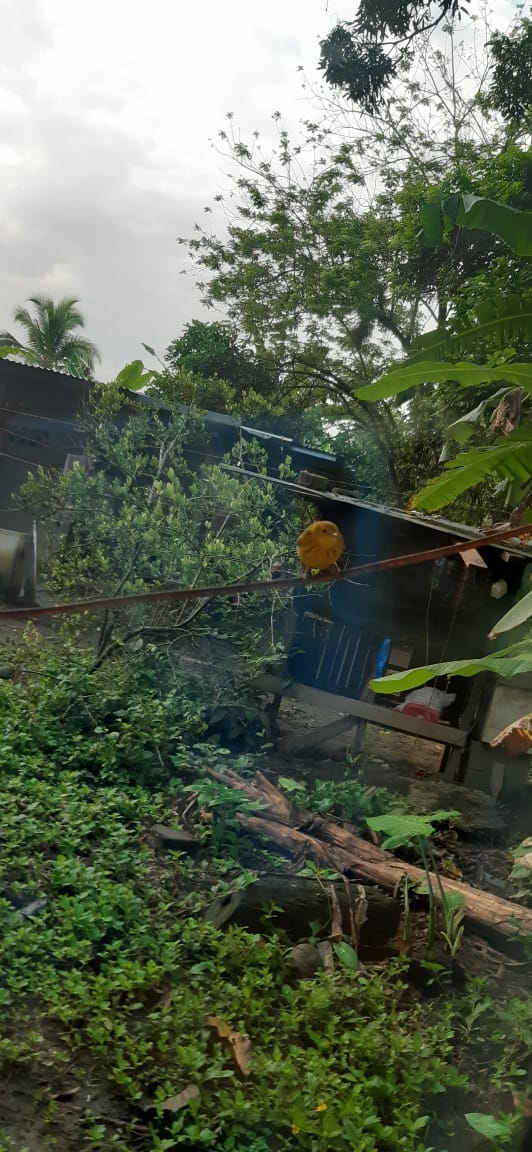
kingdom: Animalia
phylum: Chordata
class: Aves
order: Passeriformes
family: Parulidae
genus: Setophaga
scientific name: Setophaga petechia
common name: Yellow warbler
